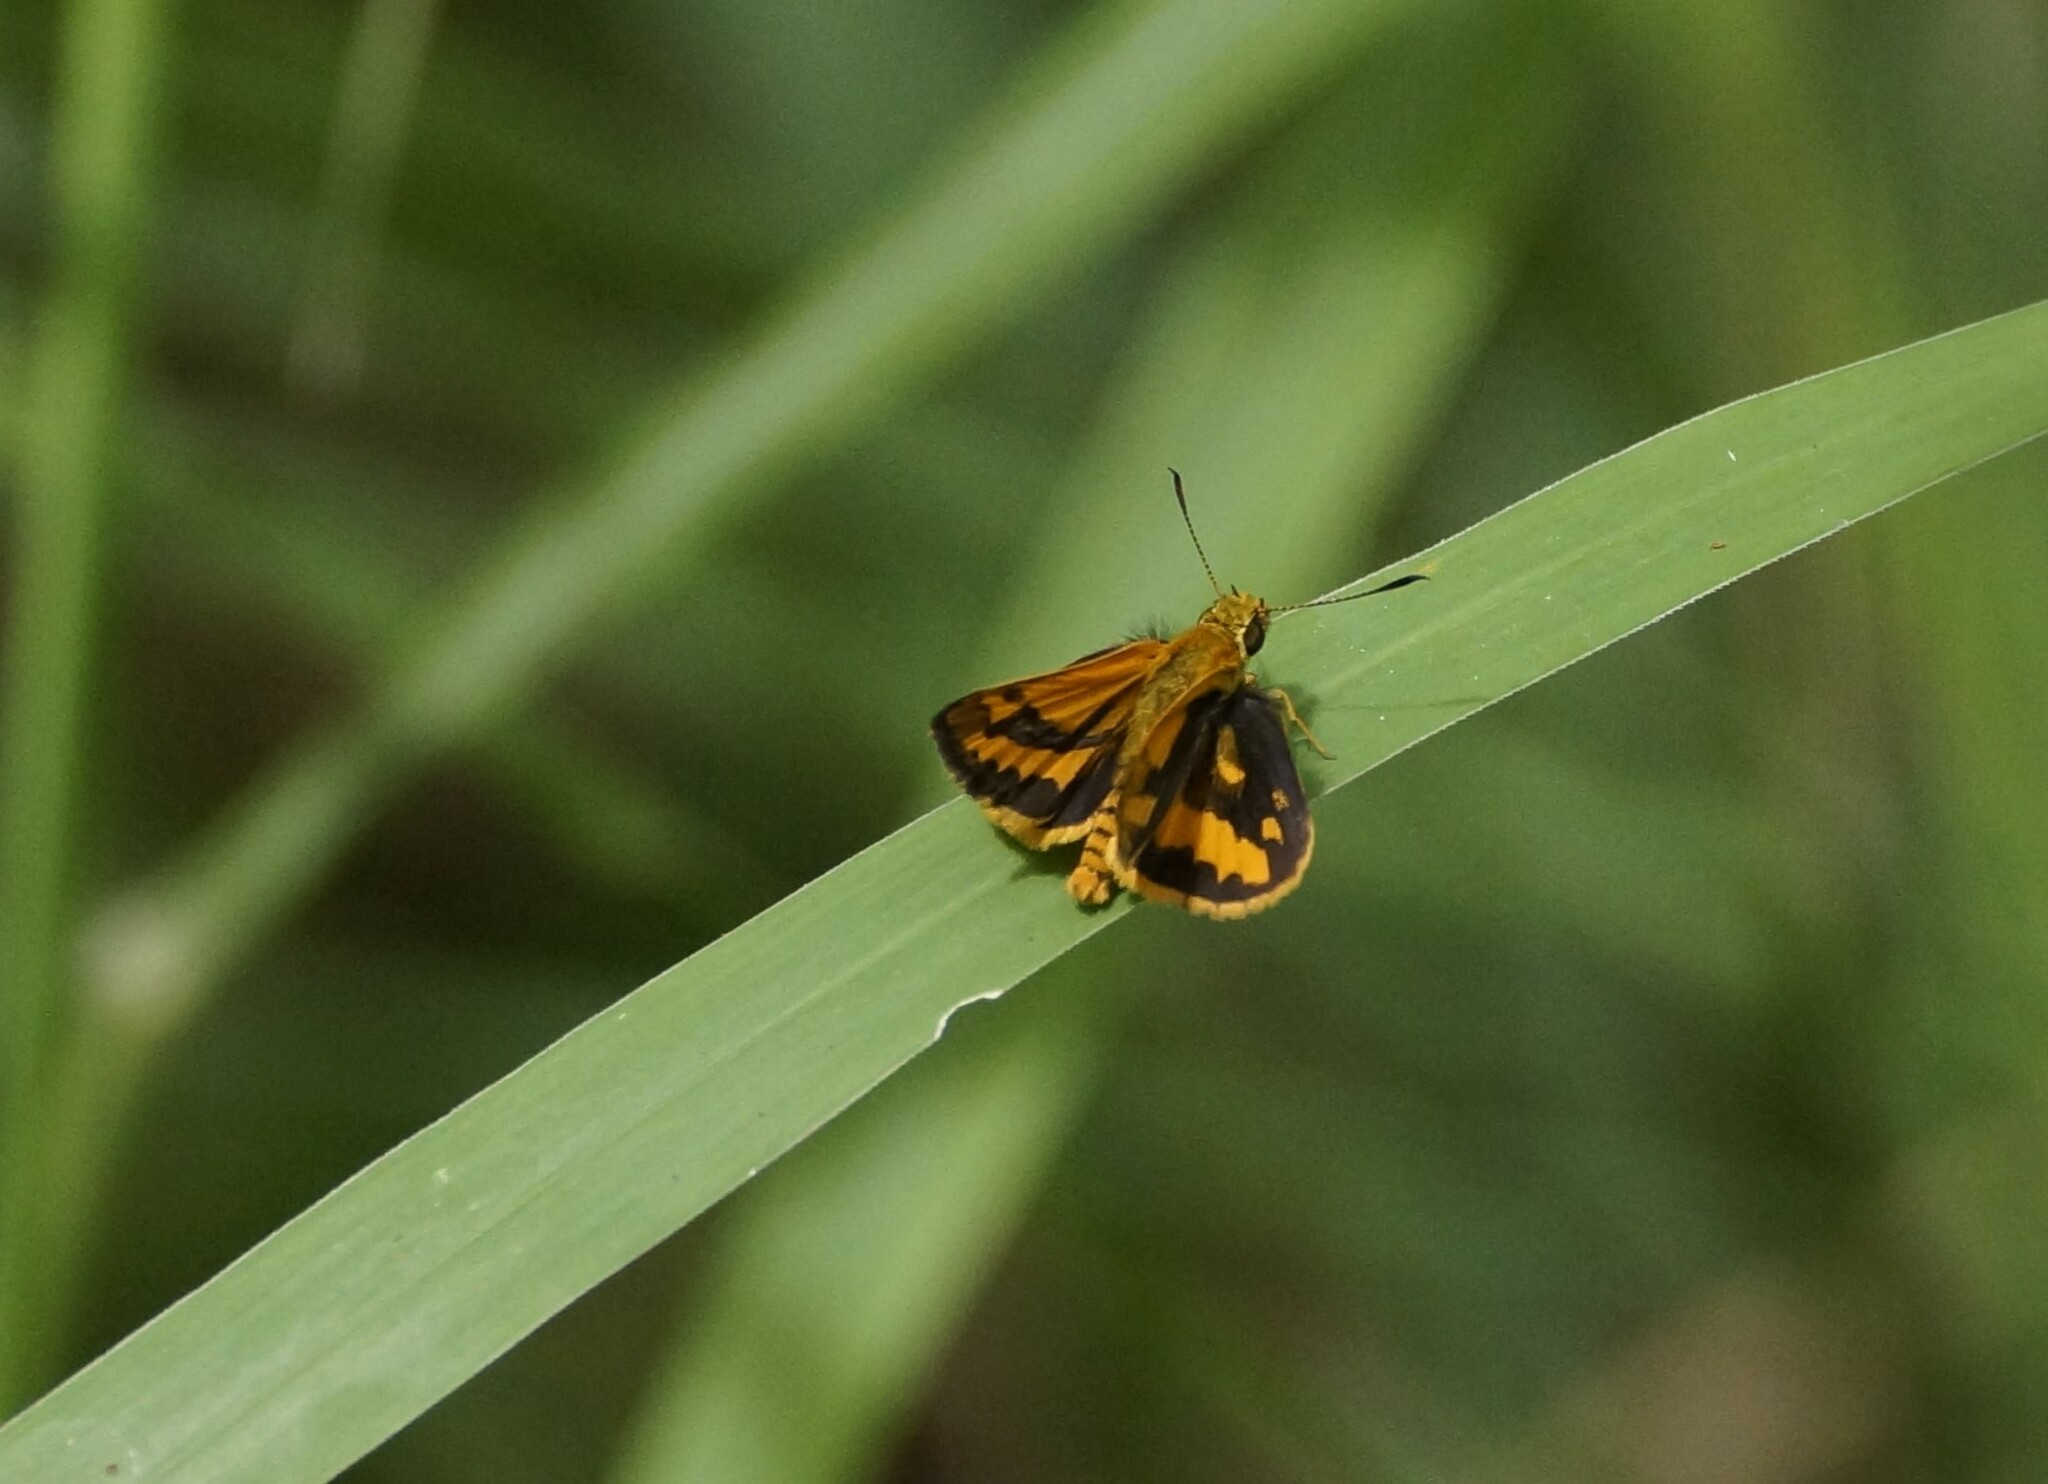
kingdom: Animalia
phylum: Arthropoda
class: Insecta
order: Lepidoptera
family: Hesperiidae
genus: Suniana
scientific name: Suniana sunias
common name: Wide-brand grass-dart
